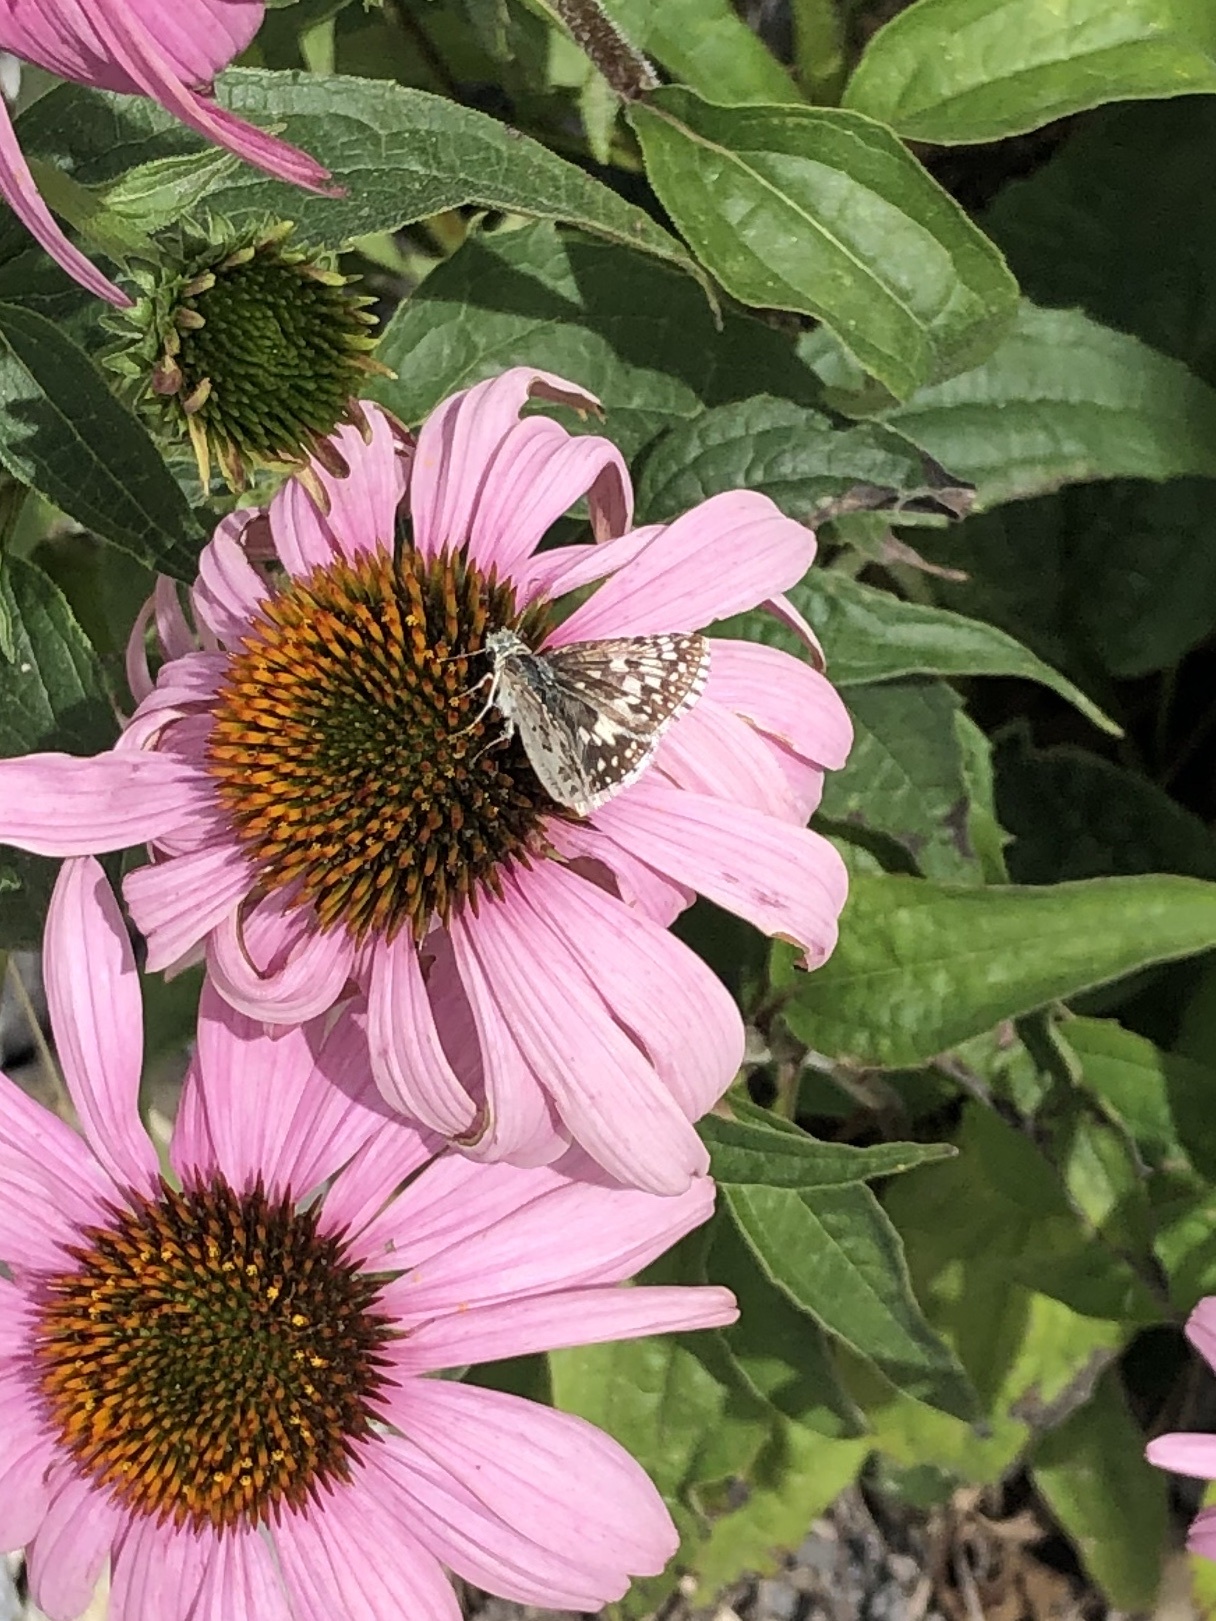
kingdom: Animalia
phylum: Arthropoda
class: Insecta
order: Lepidoptera
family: Hesperiidae
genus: Burnsius
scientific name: Burnsius communis
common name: Common checkered-skipper
